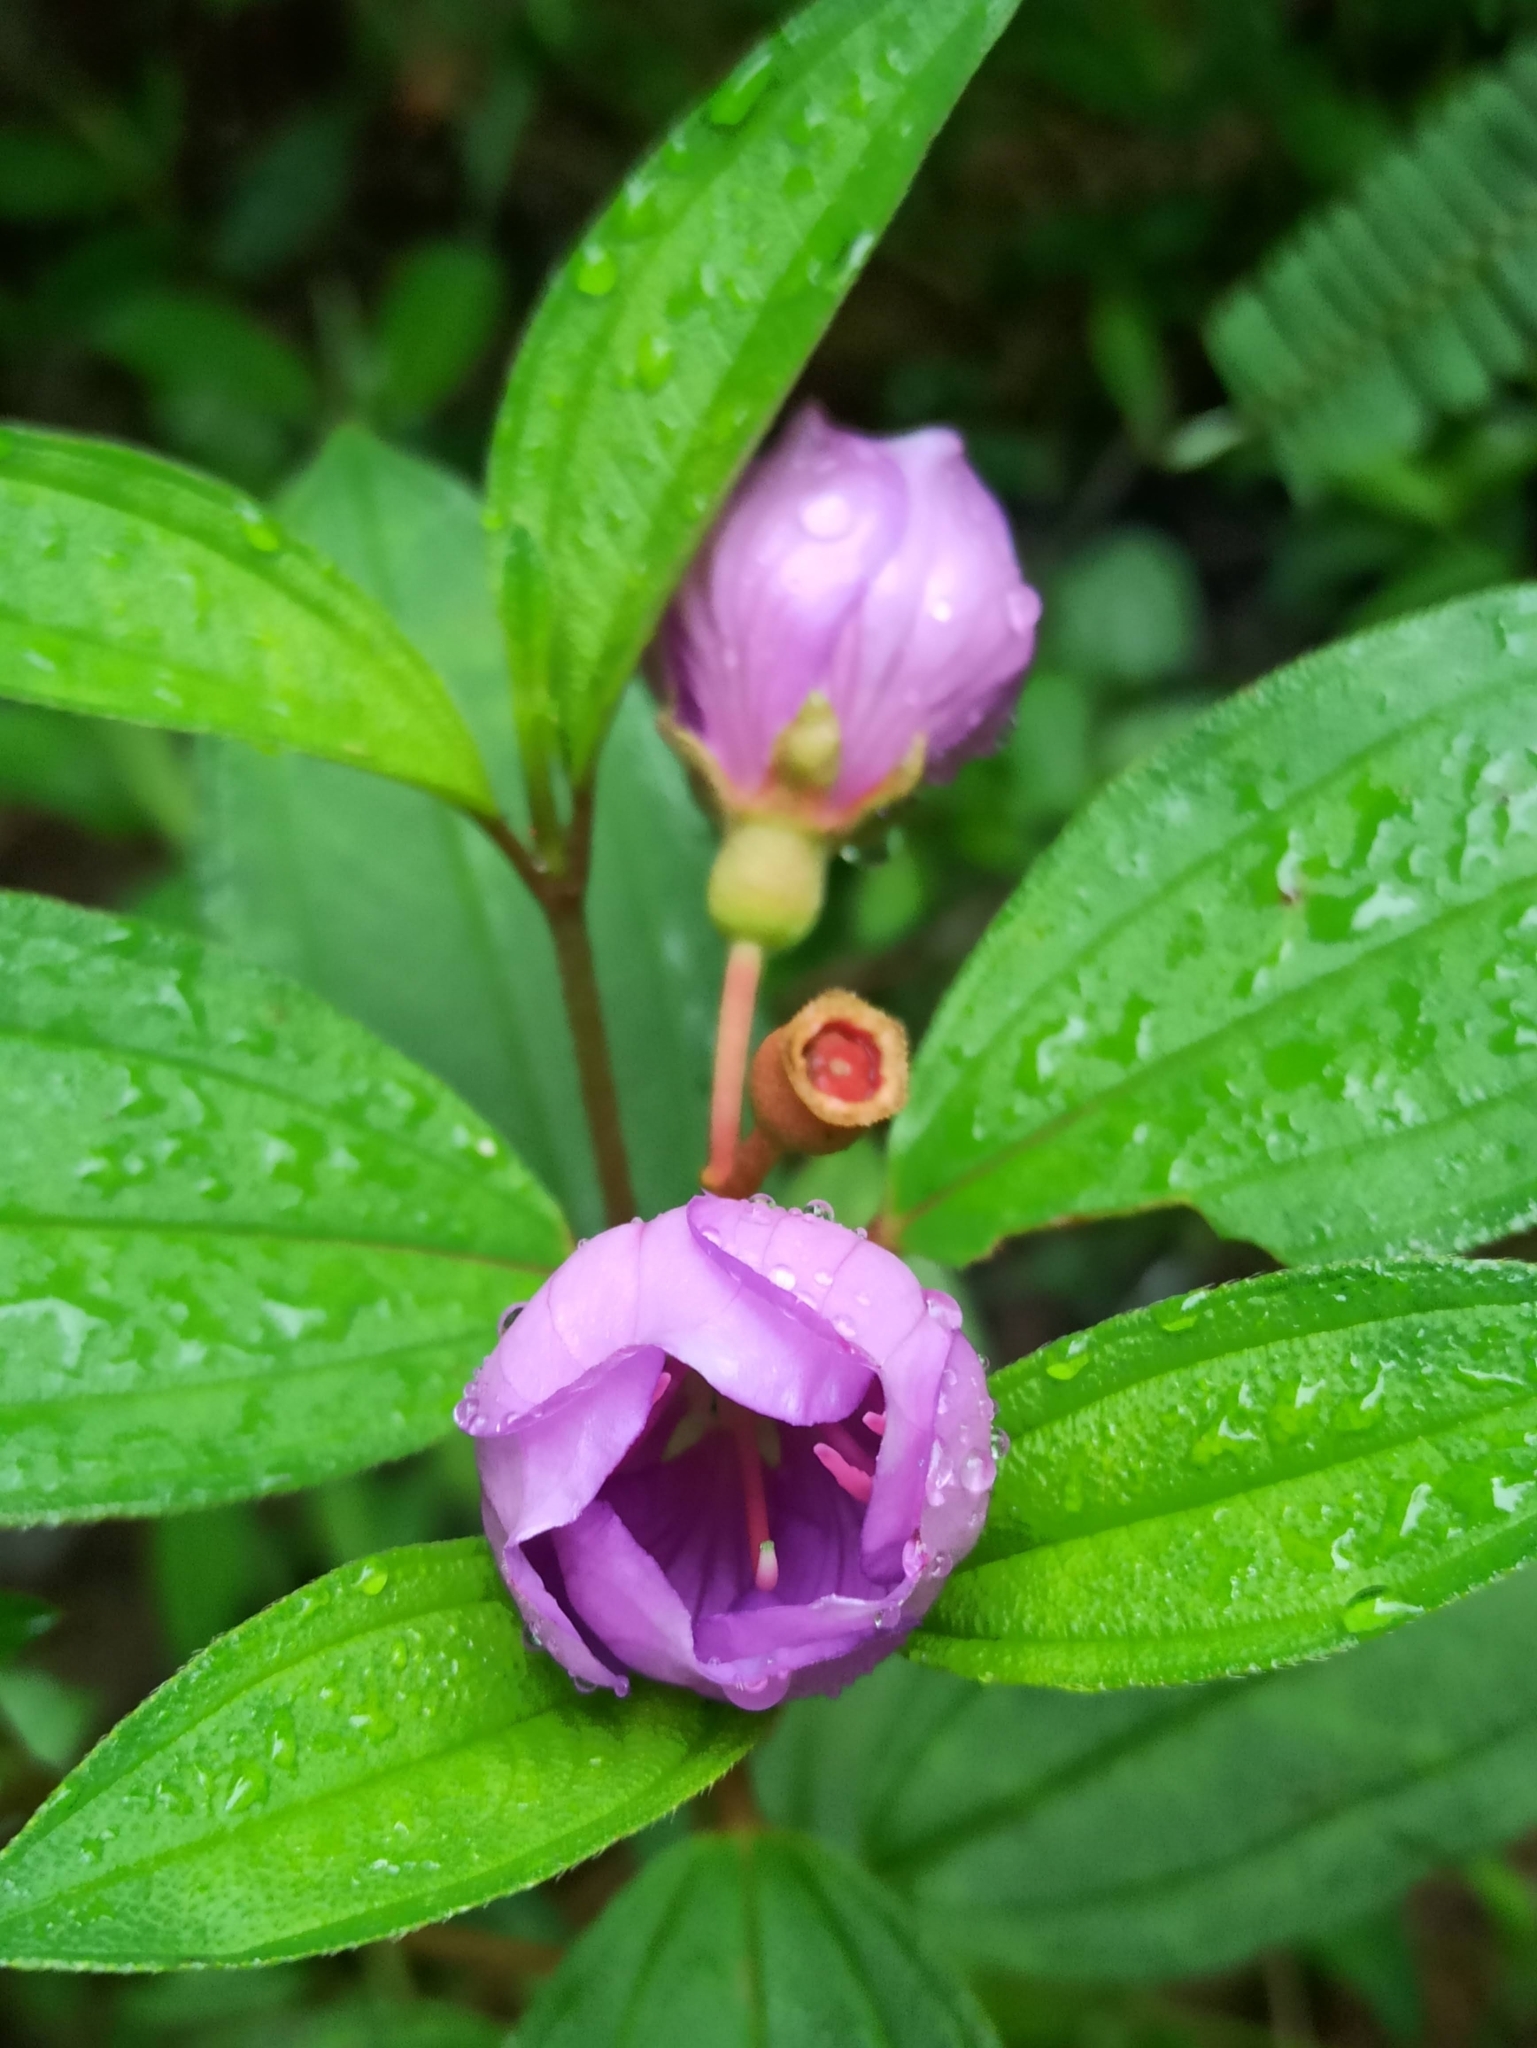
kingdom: Plantae
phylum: Tracheophyta
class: Magnoliopsida
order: Myrtales
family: Melastomataceae
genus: Melastoma
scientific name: Melastoma malabathricum
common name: Indian-rhododendron
